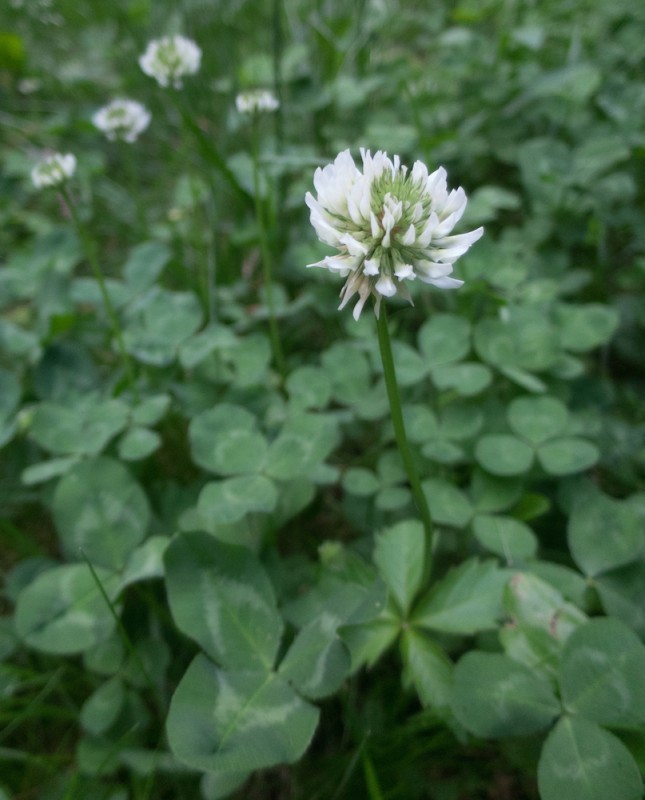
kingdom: Plantae
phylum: Tracheophyta
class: Magnoliopsida
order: Fabales
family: Fabaceae
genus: Trifolium
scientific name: Trifolium repens
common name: White clover
